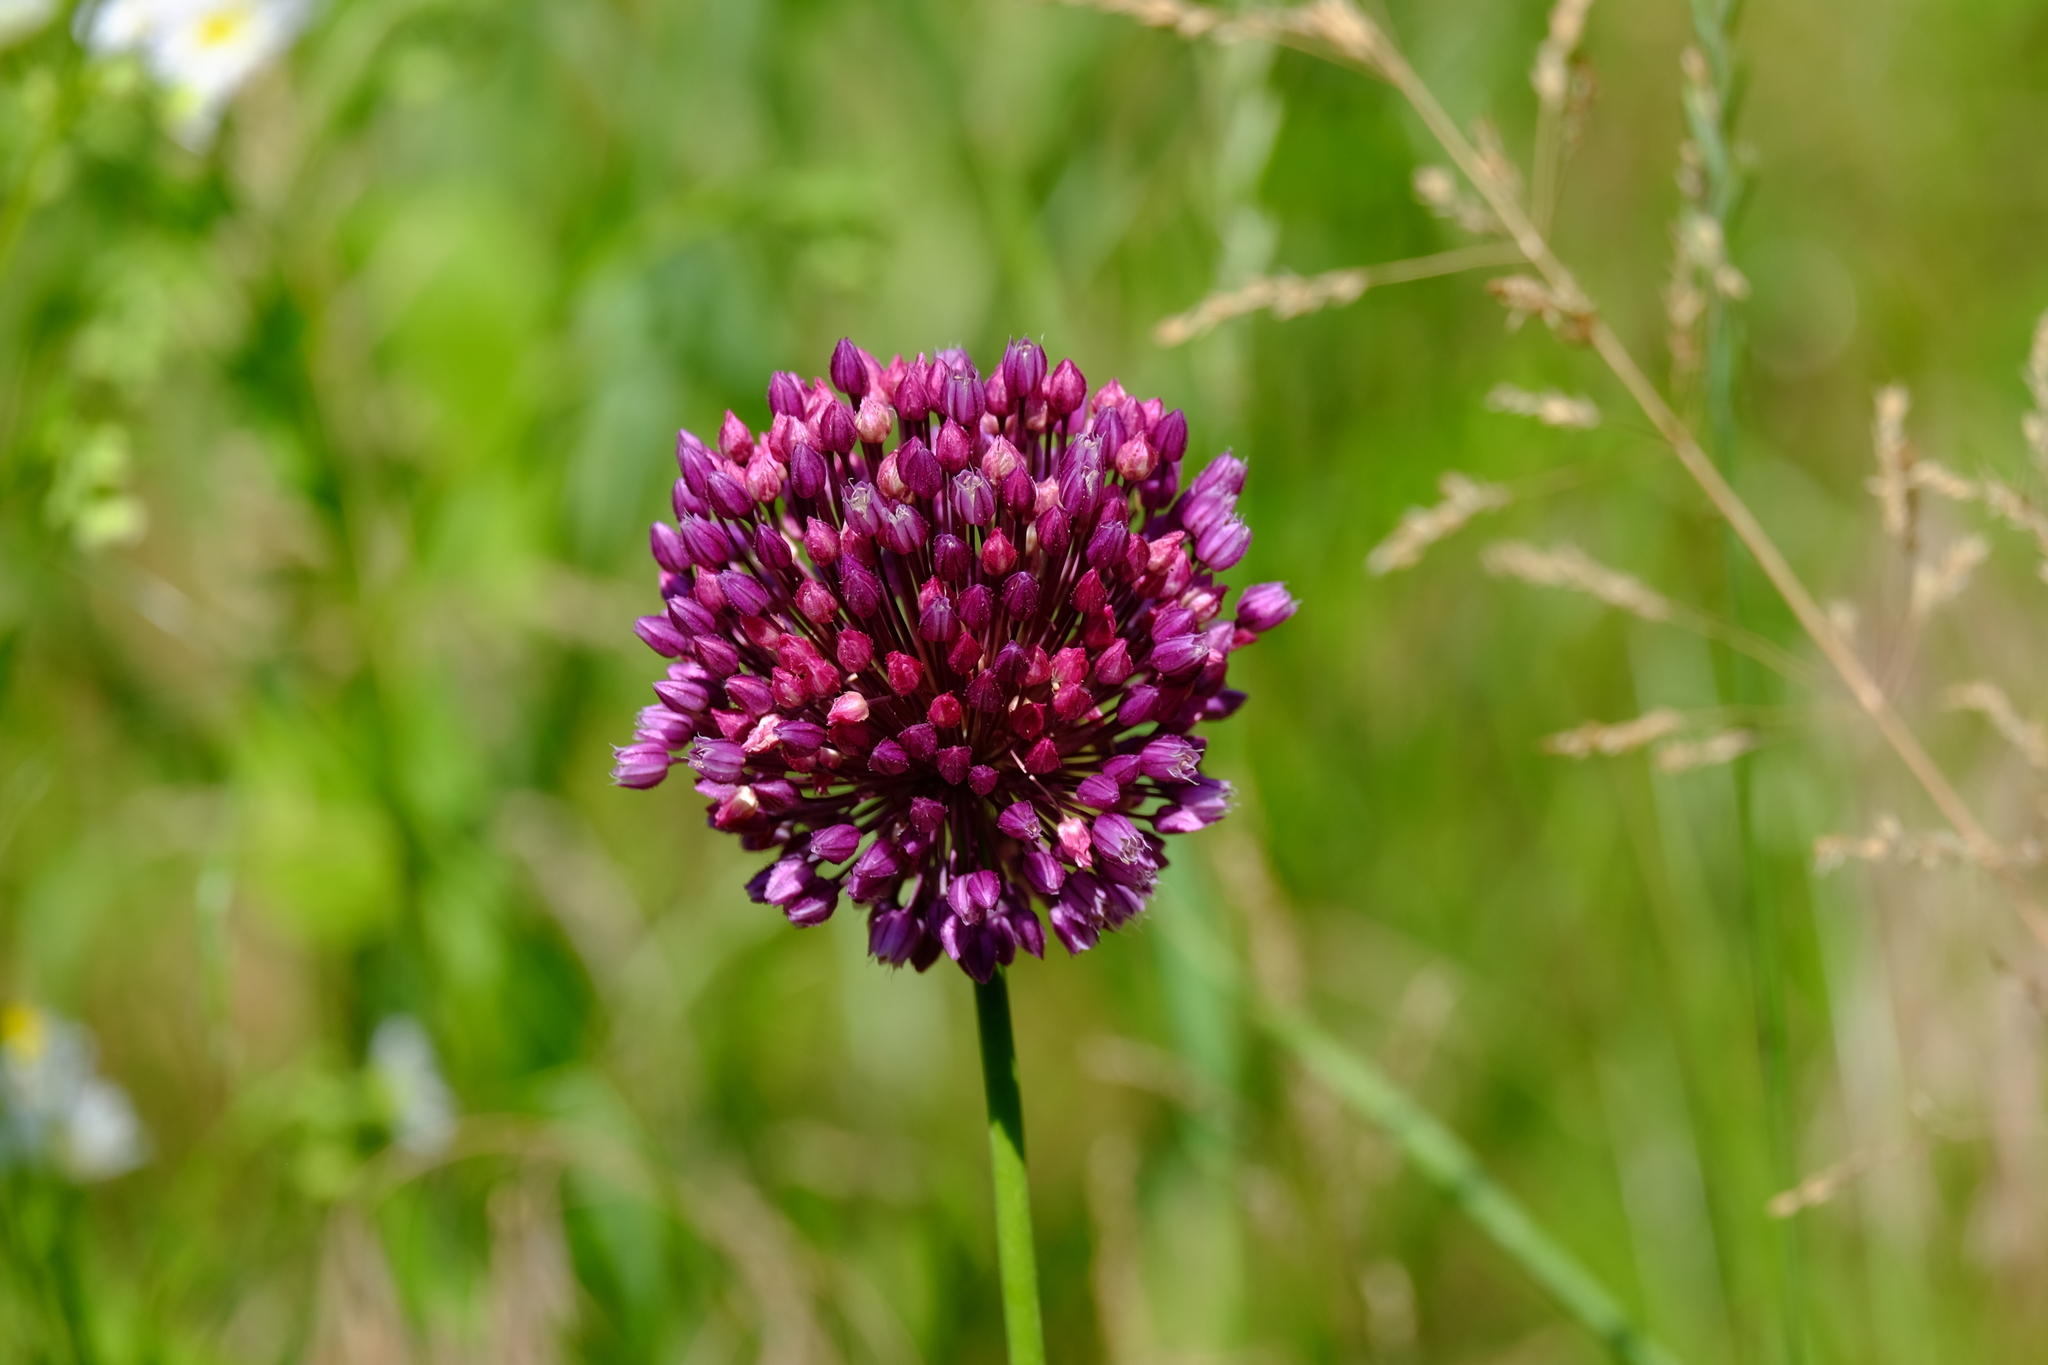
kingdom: Plantae
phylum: Tracheophyta
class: Liliopsida
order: Asparagales
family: Amaryllidaceae
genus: Allium
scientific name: Allium rotundum
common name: Sand leek
